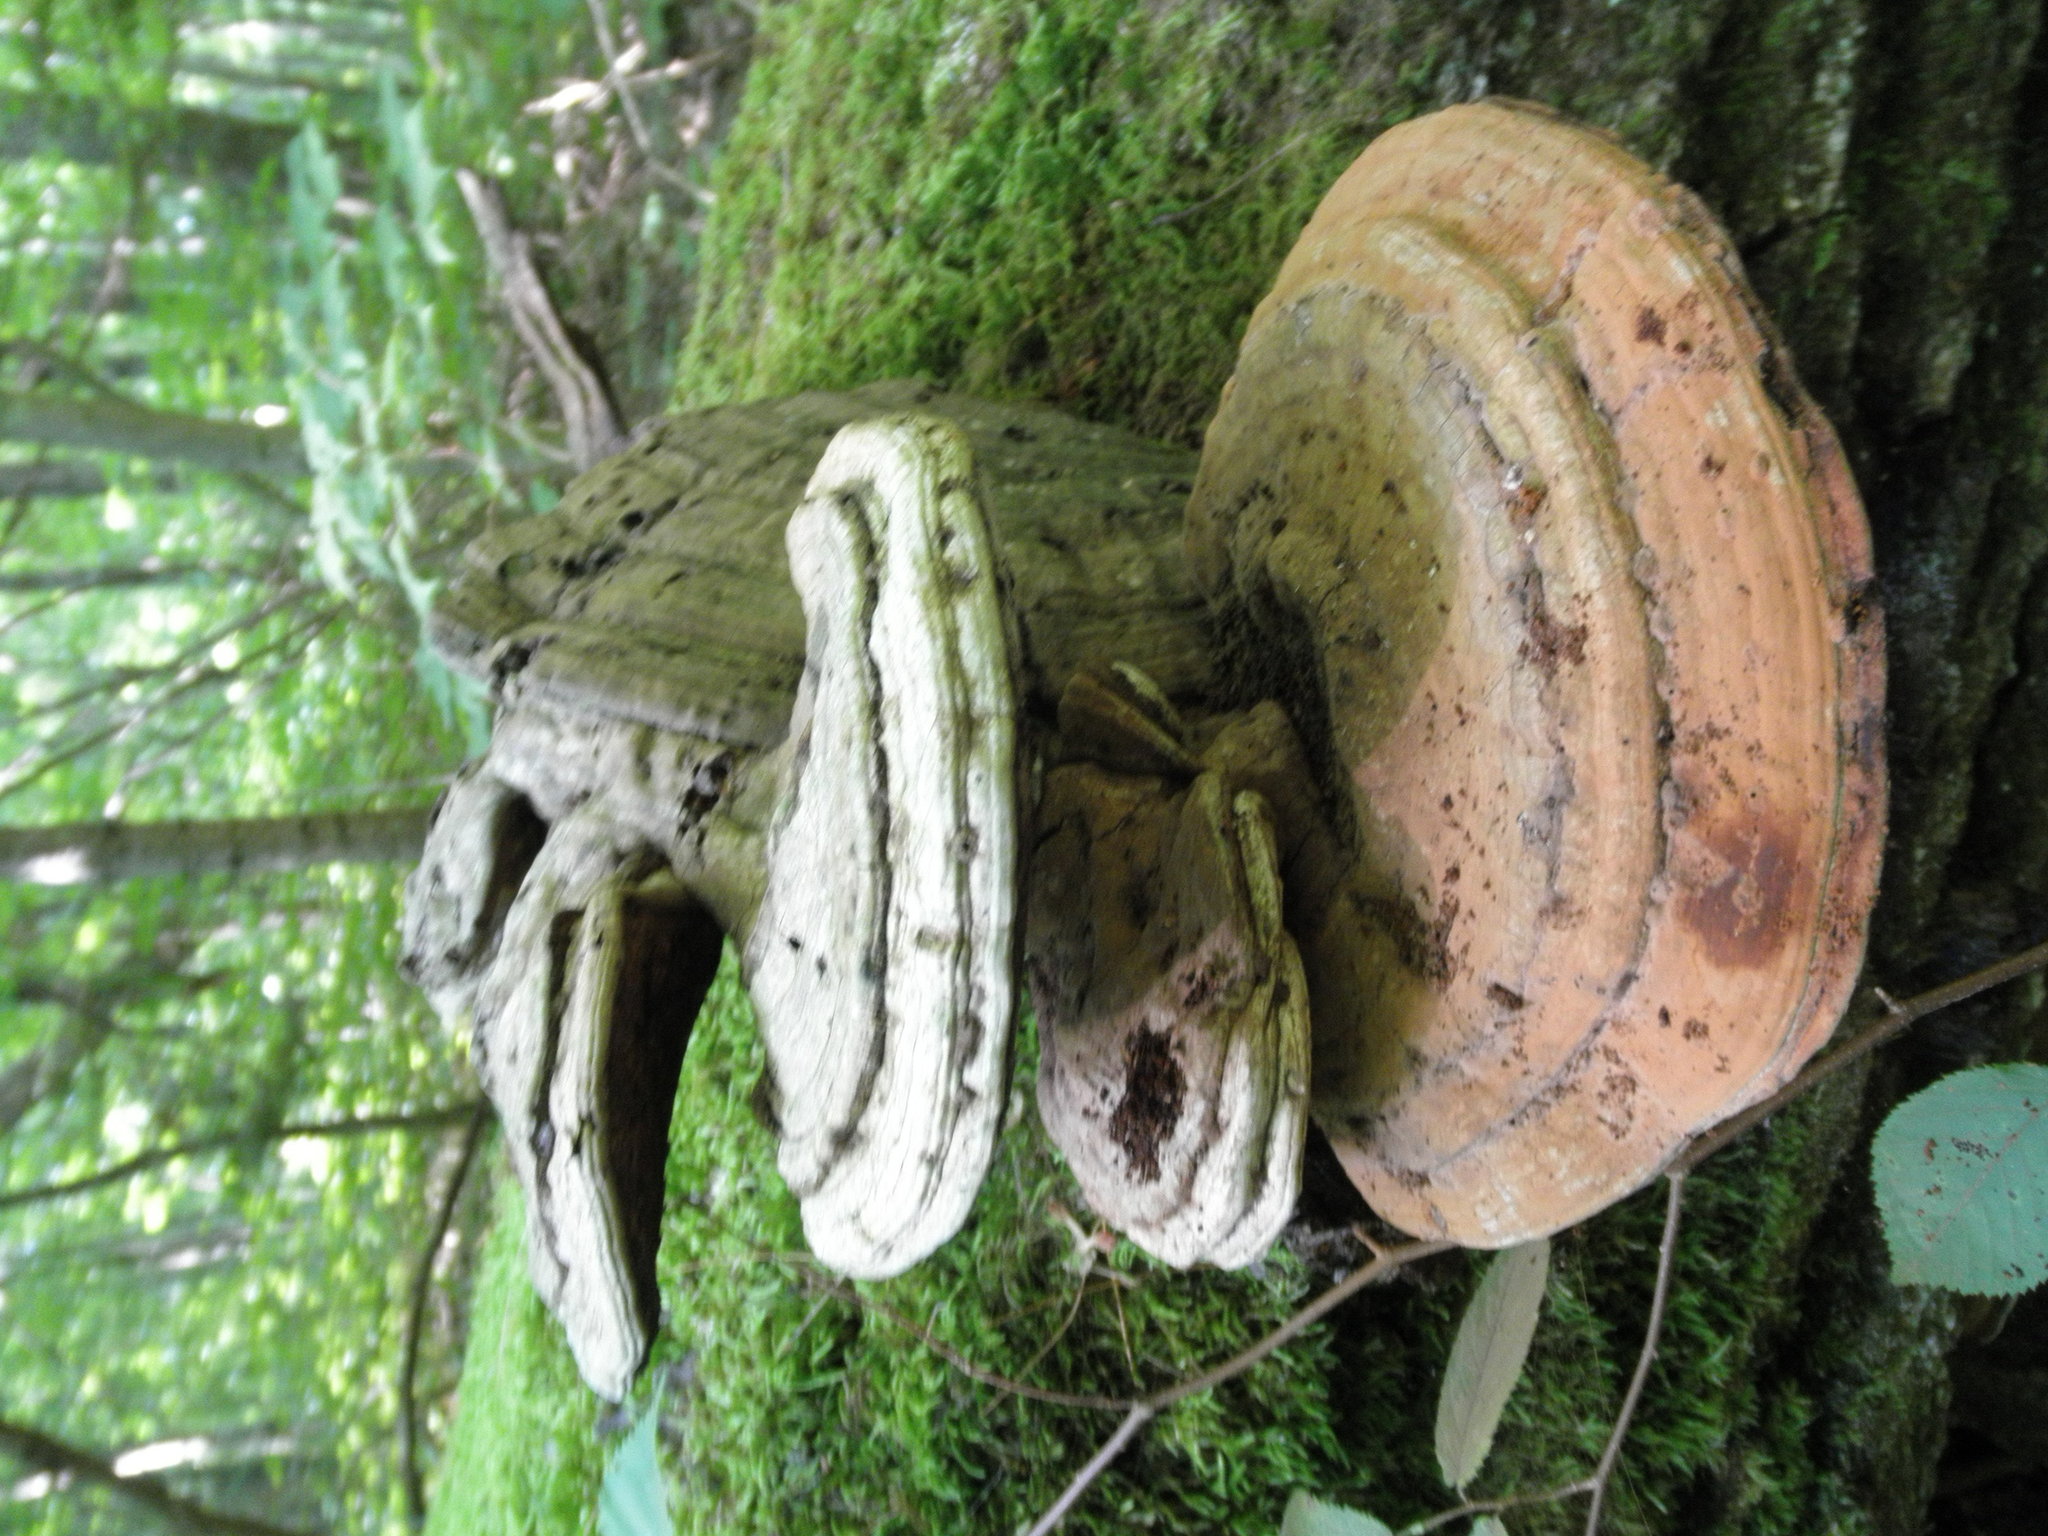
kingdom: Fungi
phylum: Basidiomycota
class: Agaricomycetes
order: Polyporales
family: Polyporaceae
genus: Ganoderma
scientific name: Ganoderma applanatum
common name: Artist's bracket
